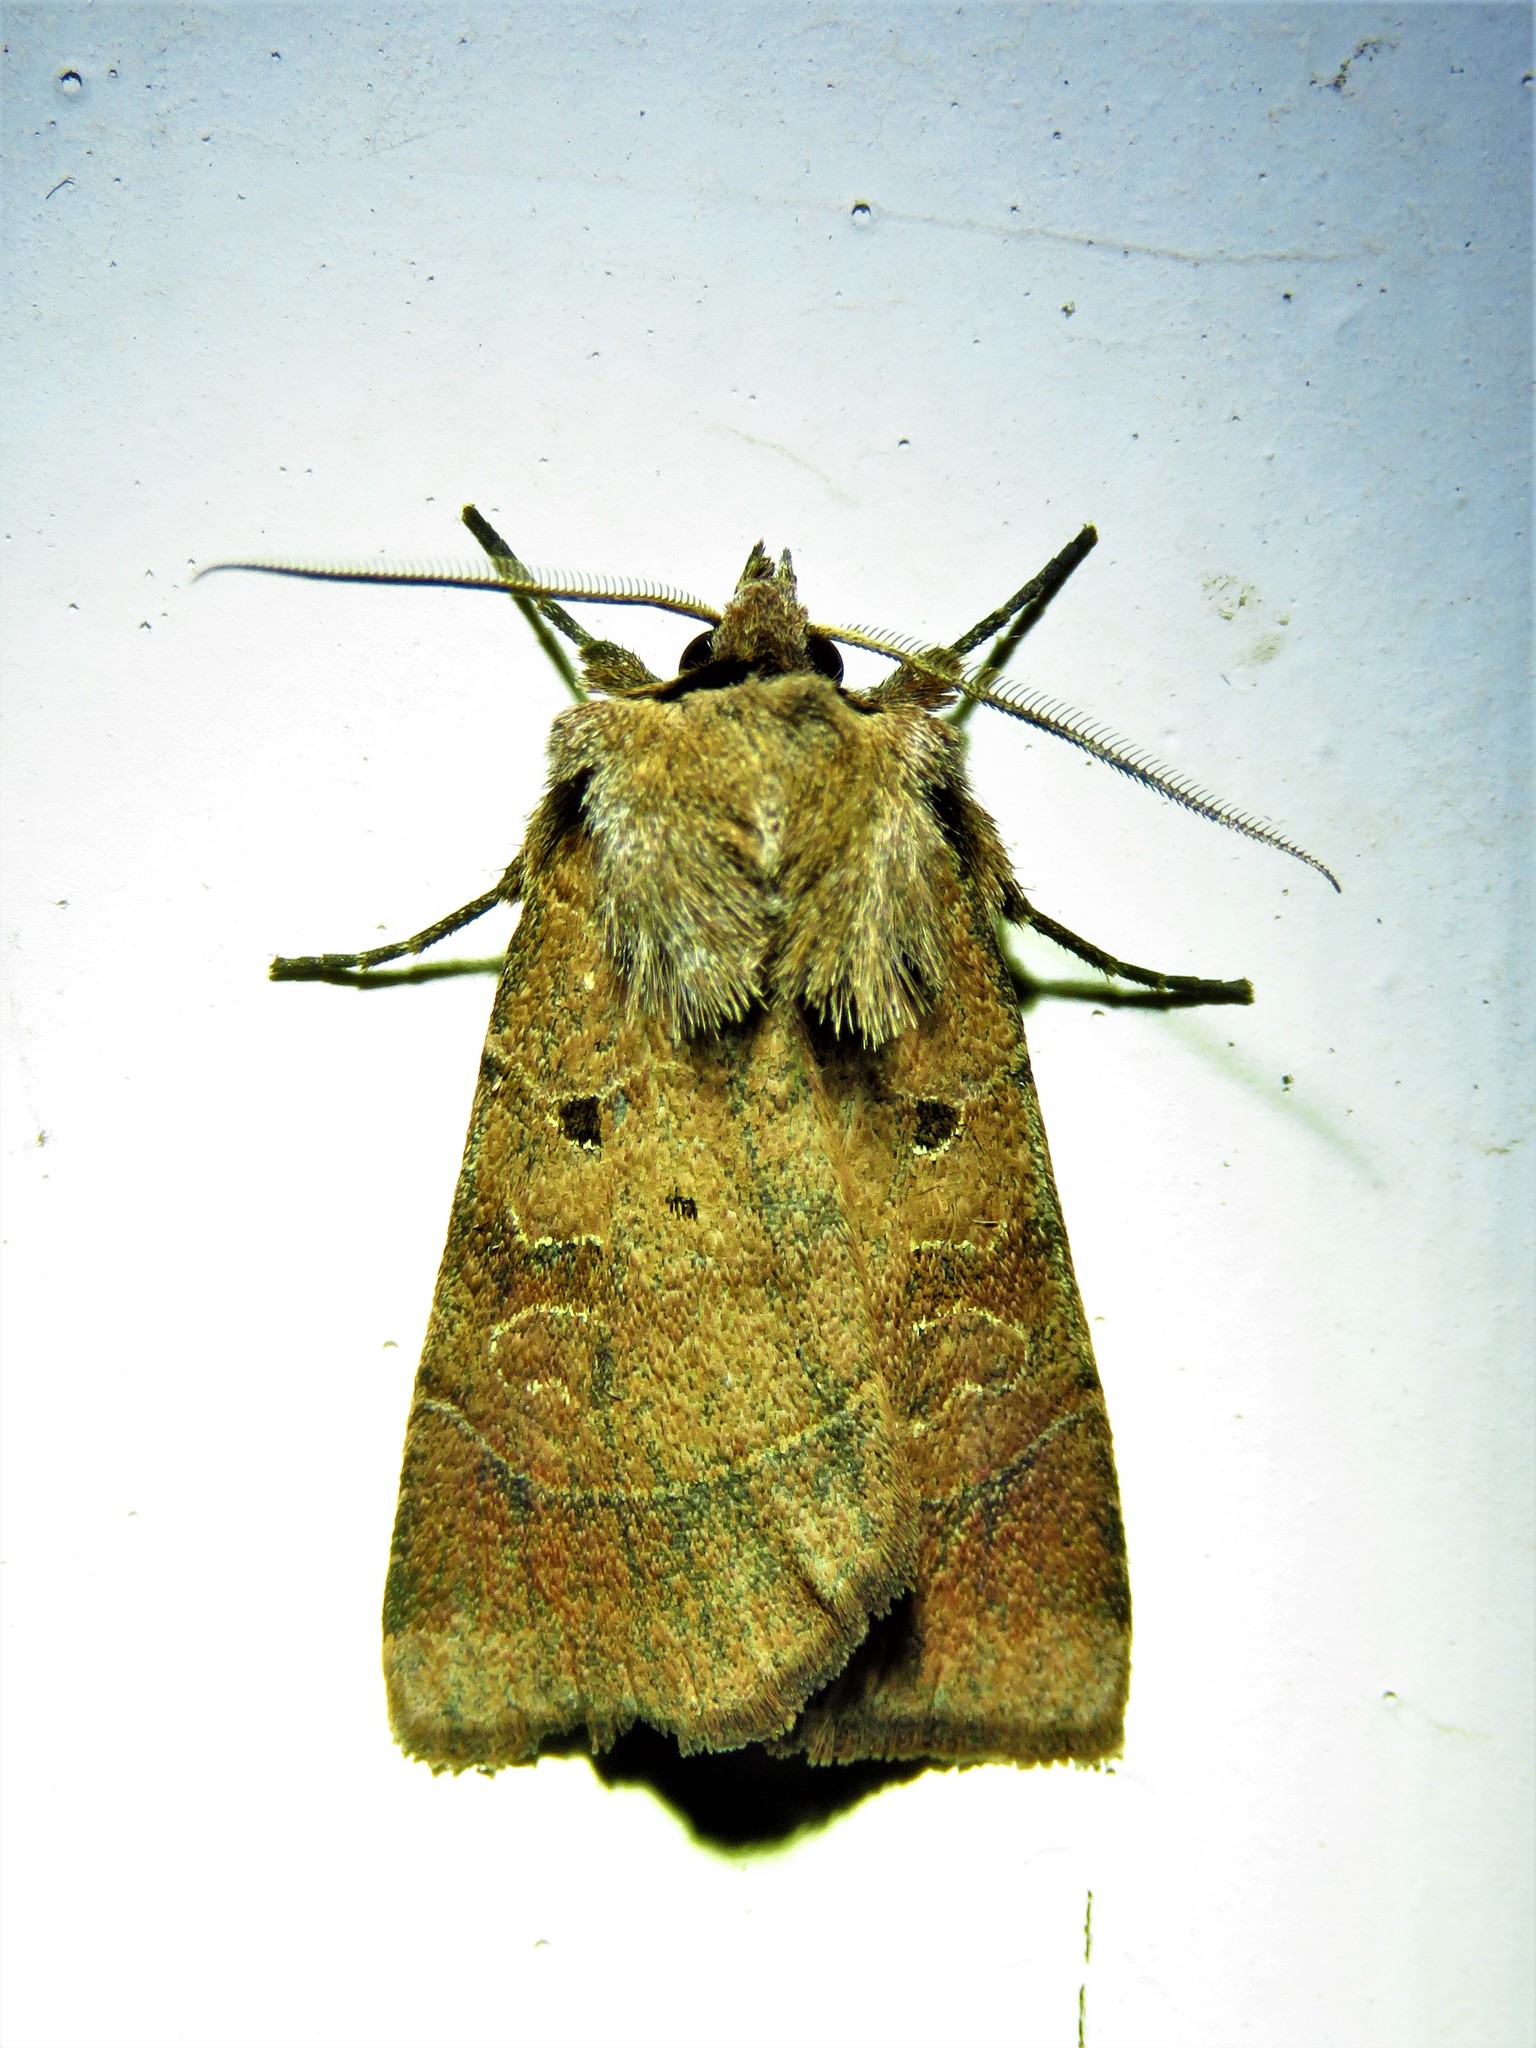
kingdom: Animalia
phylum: Arthropoda
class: Insecta
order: Lepidoptera
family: Noctuidae
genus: Agnorisma
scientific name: Agnorisma badinodis
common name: Pale-banded dart
